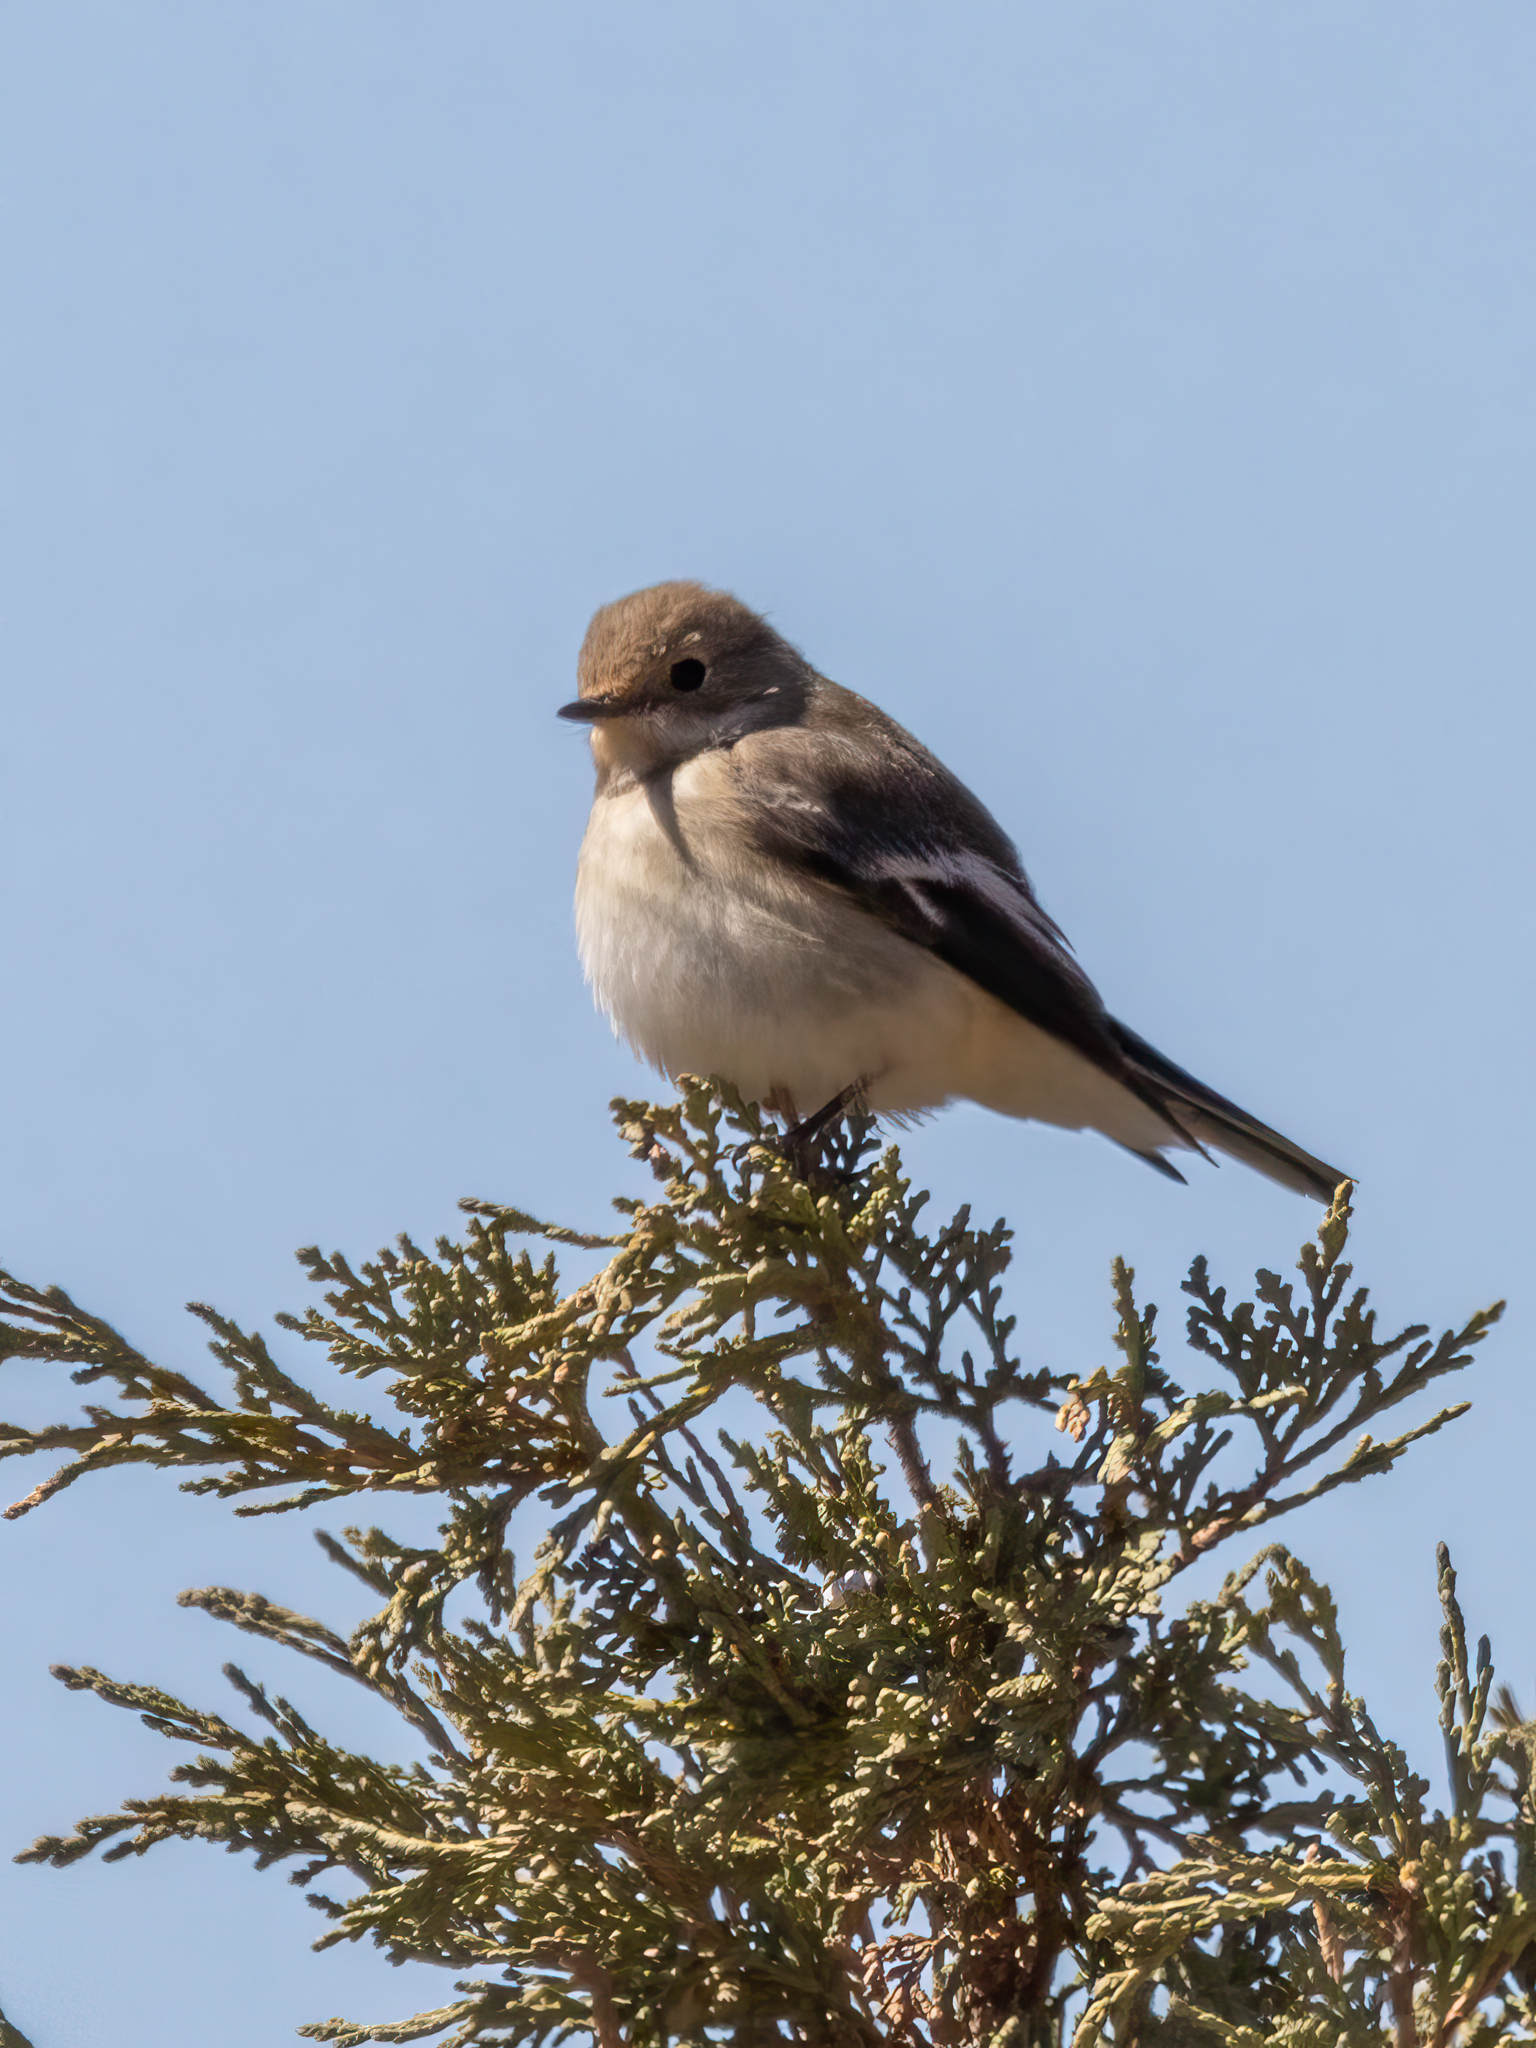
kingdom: Animalia
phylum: Chordata
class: Aves
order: Passeriformes
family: Muscicapidae
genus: Ficedula
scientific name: Ficedula hypoleuca
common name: European pied flycatcher
